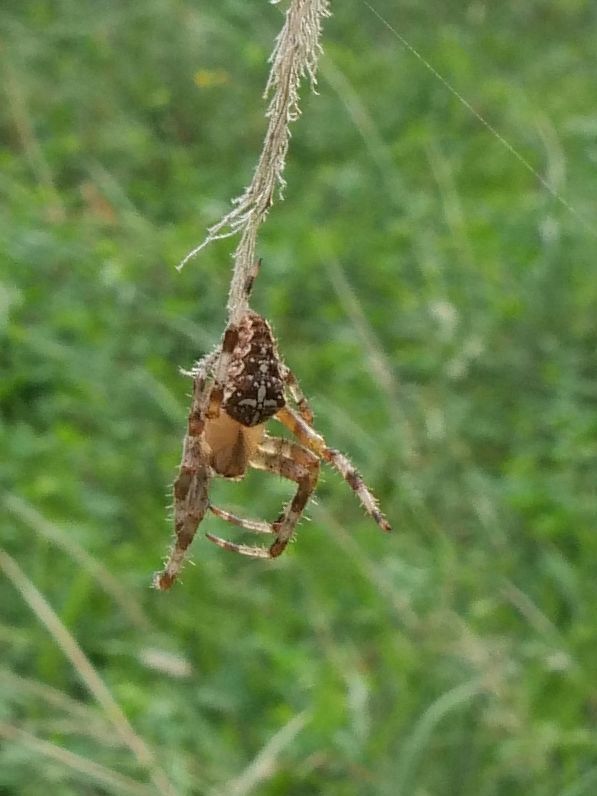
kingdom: Animalia
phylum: Arthropoda
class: Arachnida
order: Araneae
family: Araneidae
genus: Araneus
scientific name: Araneus diadematus
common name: Cross orbweaver
